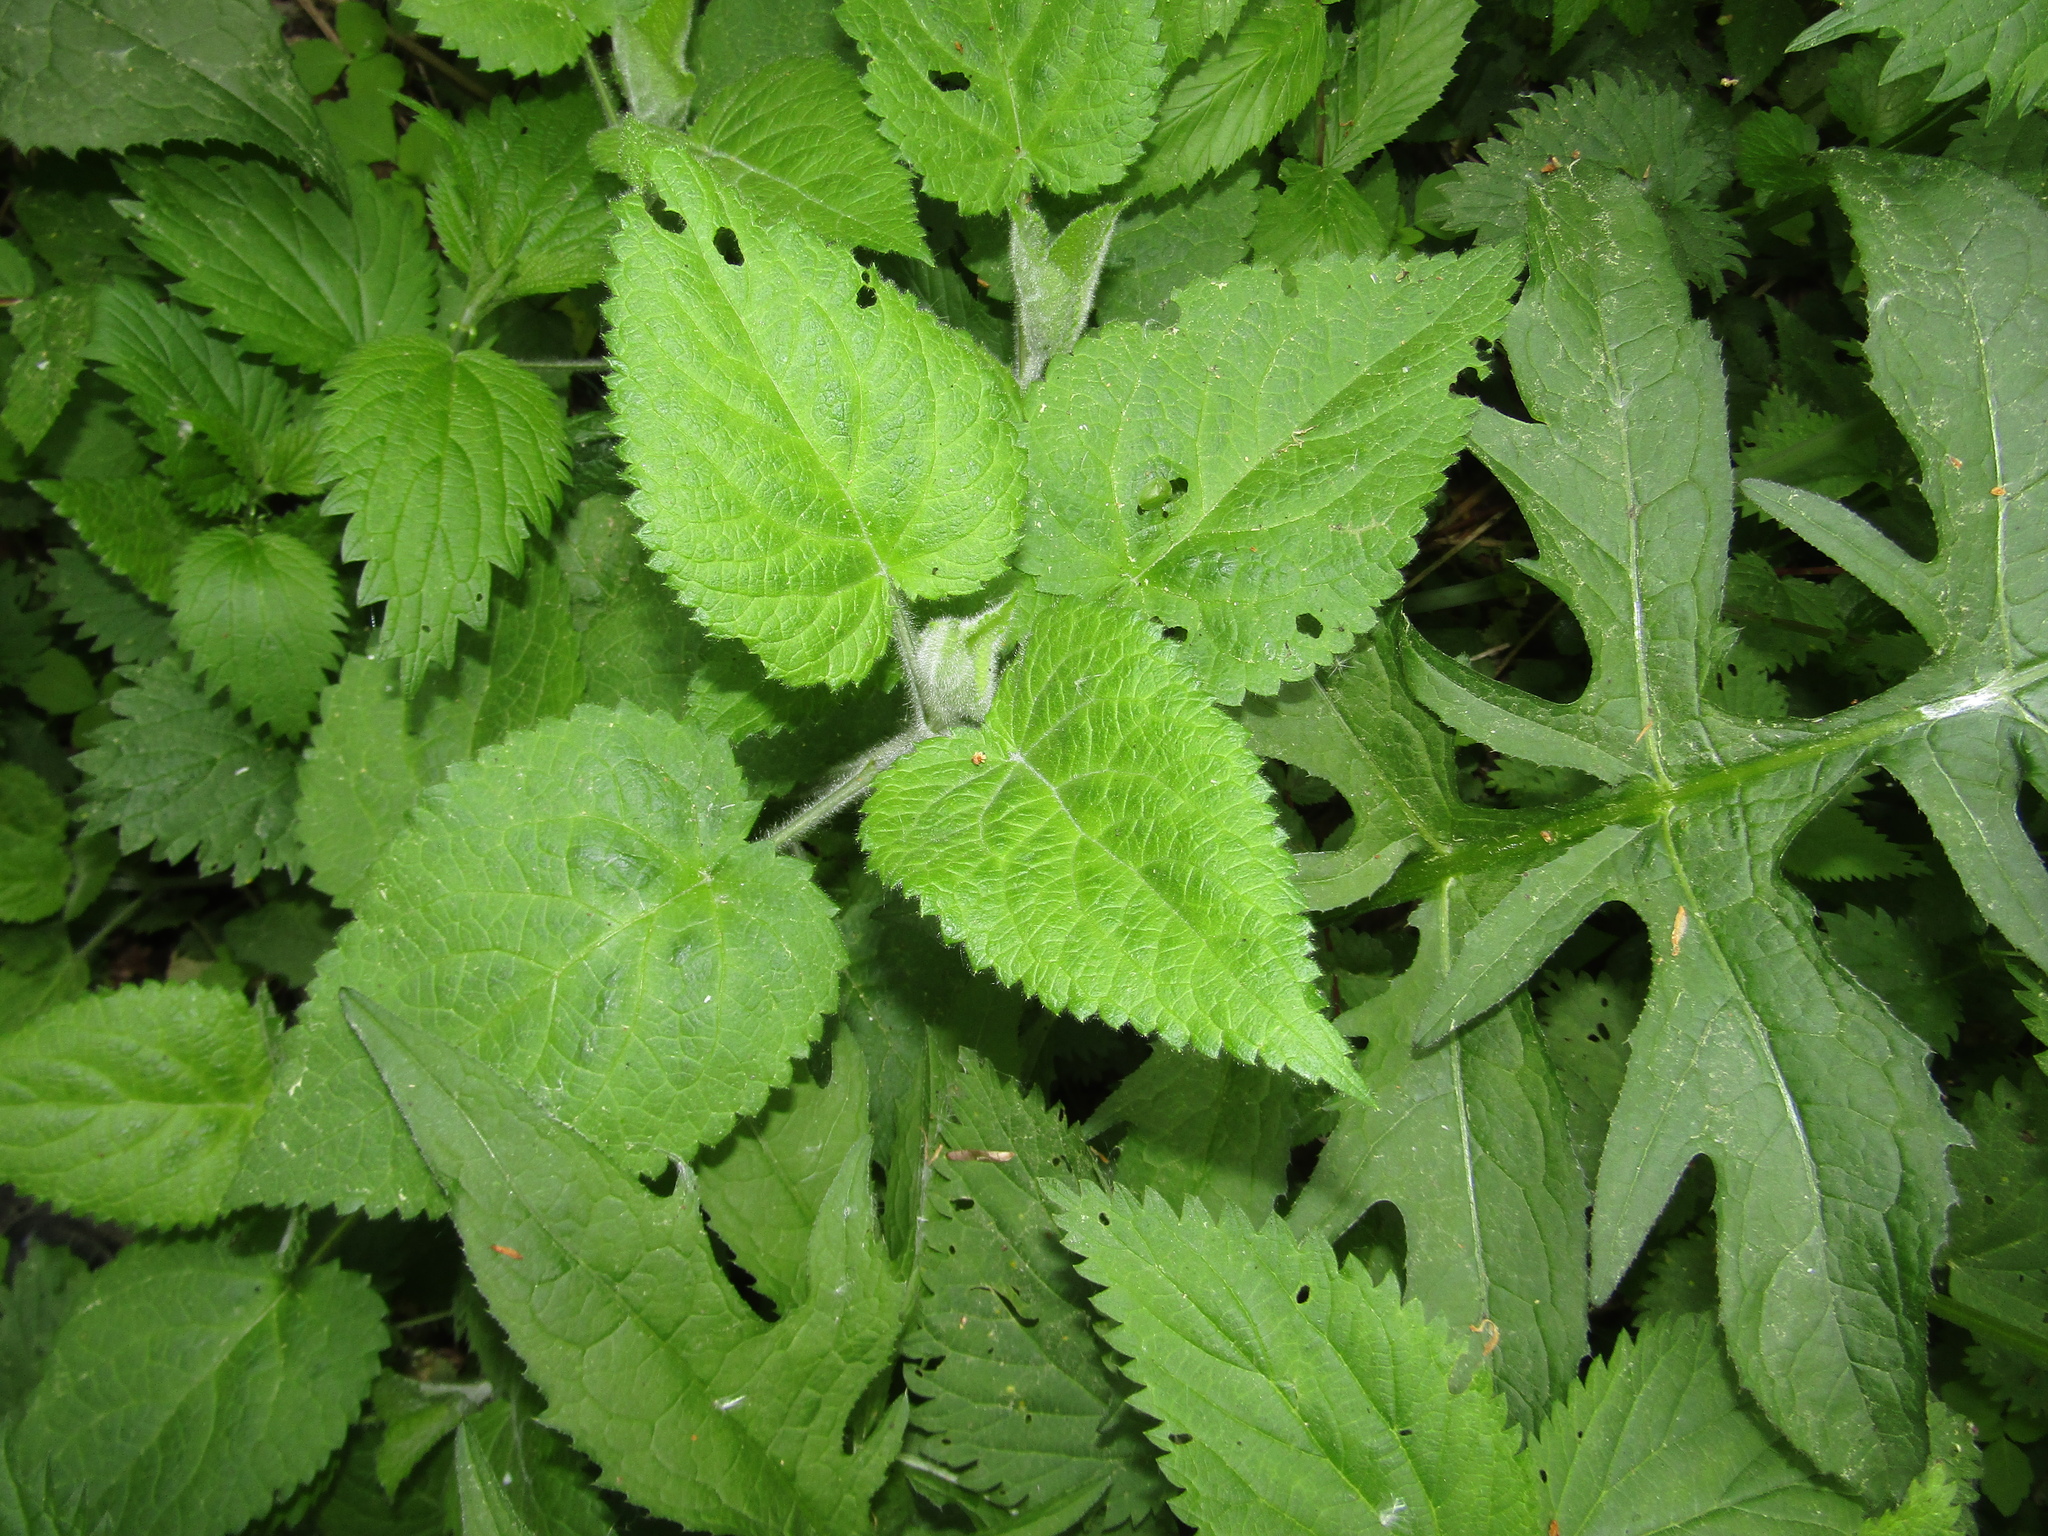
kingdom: Plantae
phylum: Tracheophyta
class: Magnoliopsida
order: Lamiales
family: Lamiaceae
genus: Stachys
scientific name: Stachys sylvatica
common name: Hedge woundwort
